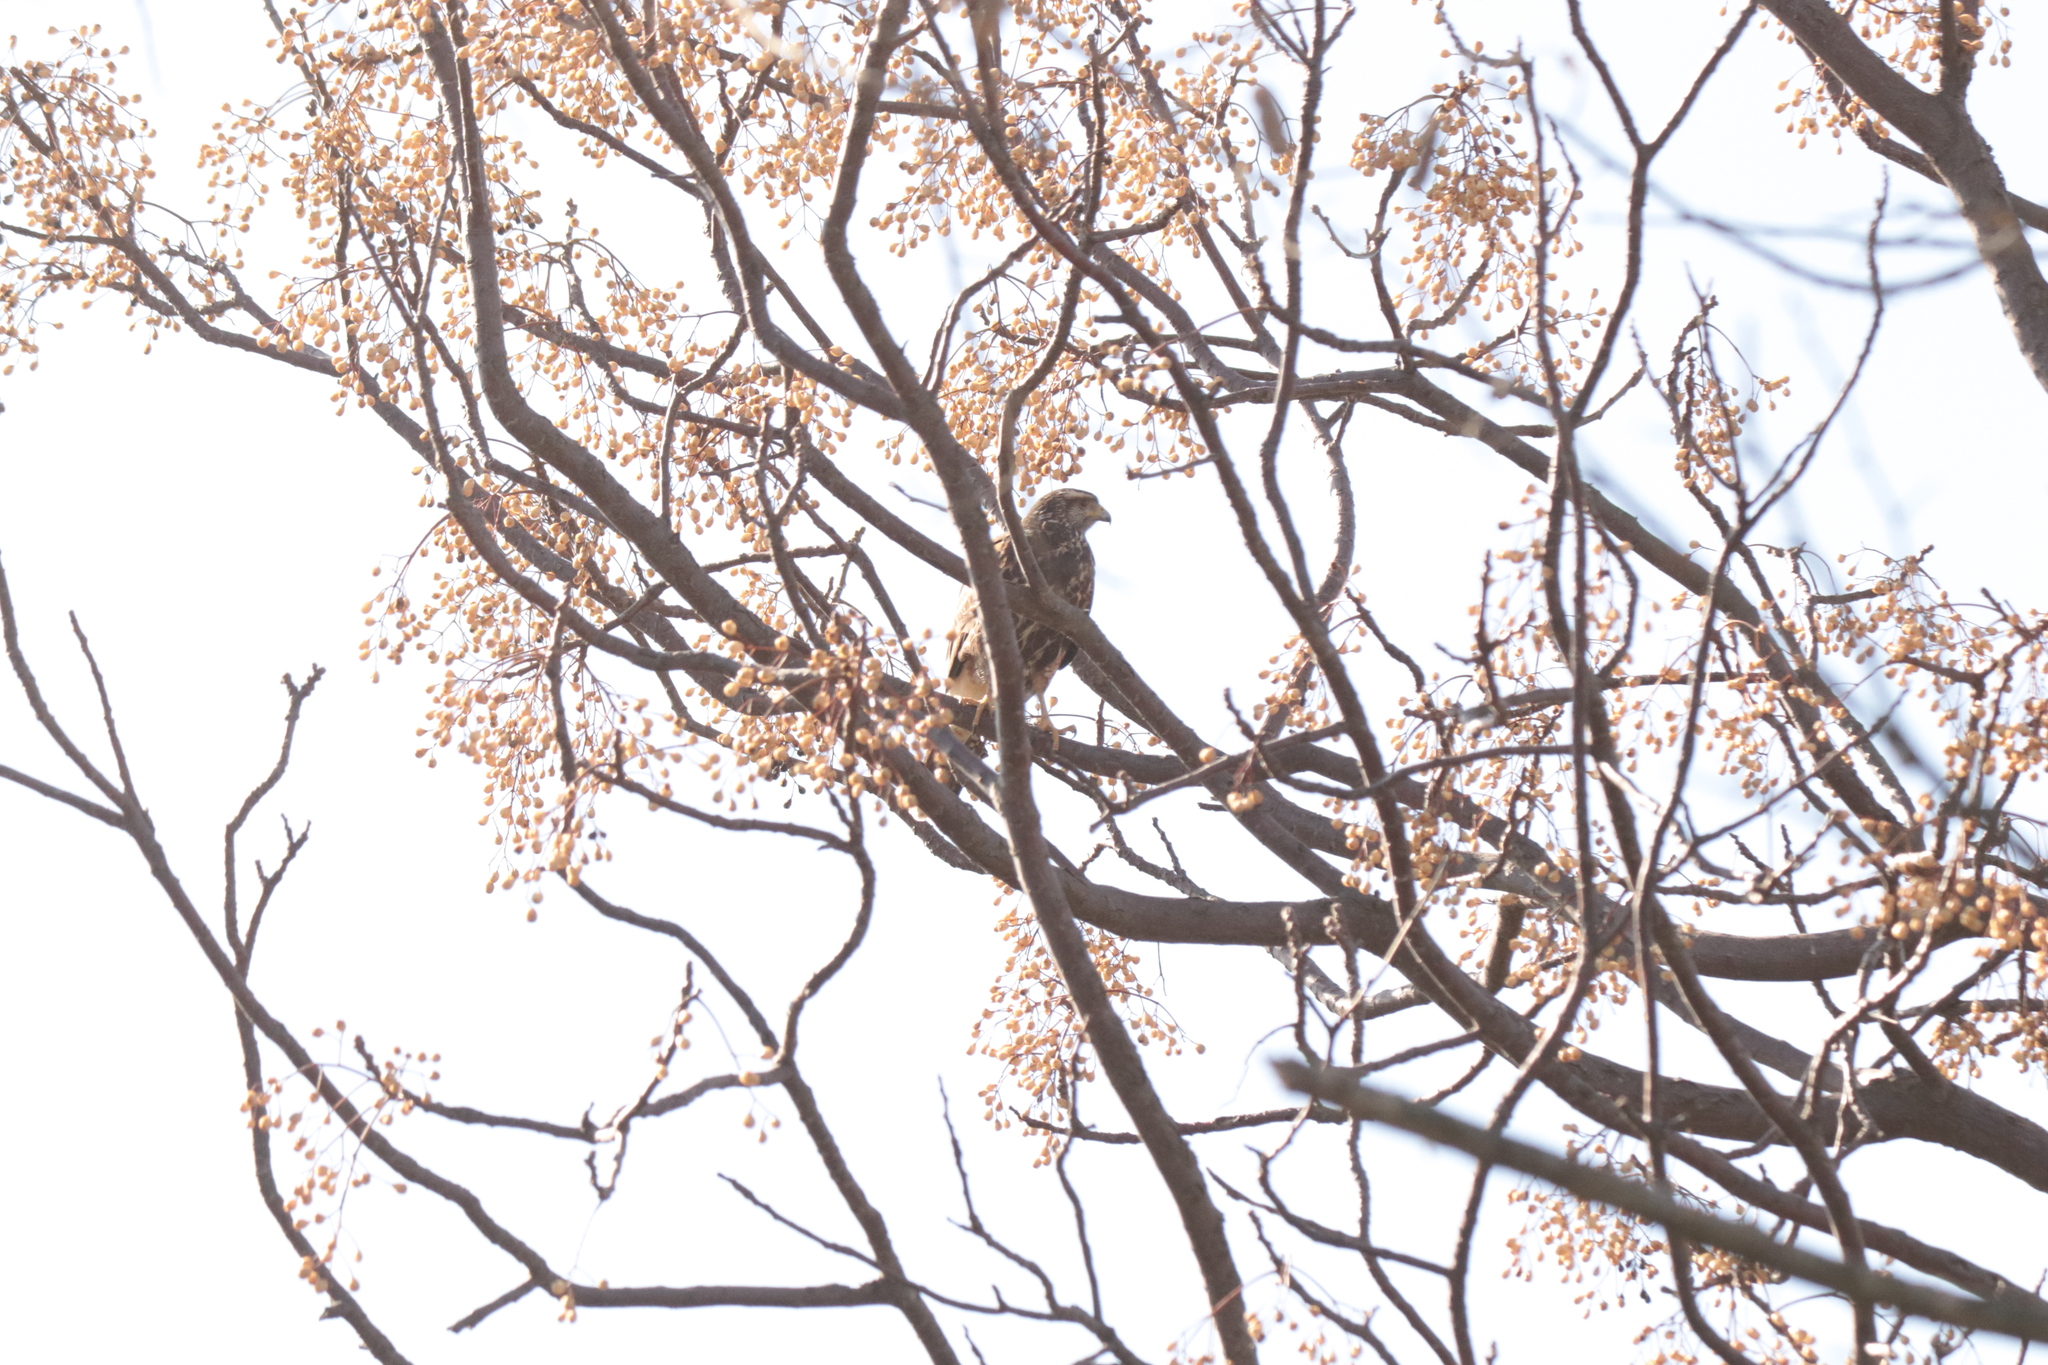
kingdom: Animalia
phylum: Chordata
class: Aves
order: Accipitriformes
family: Accipitridae
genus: Parabuteo
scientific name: Parabuteo unicinctus
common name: Harris's hawk
